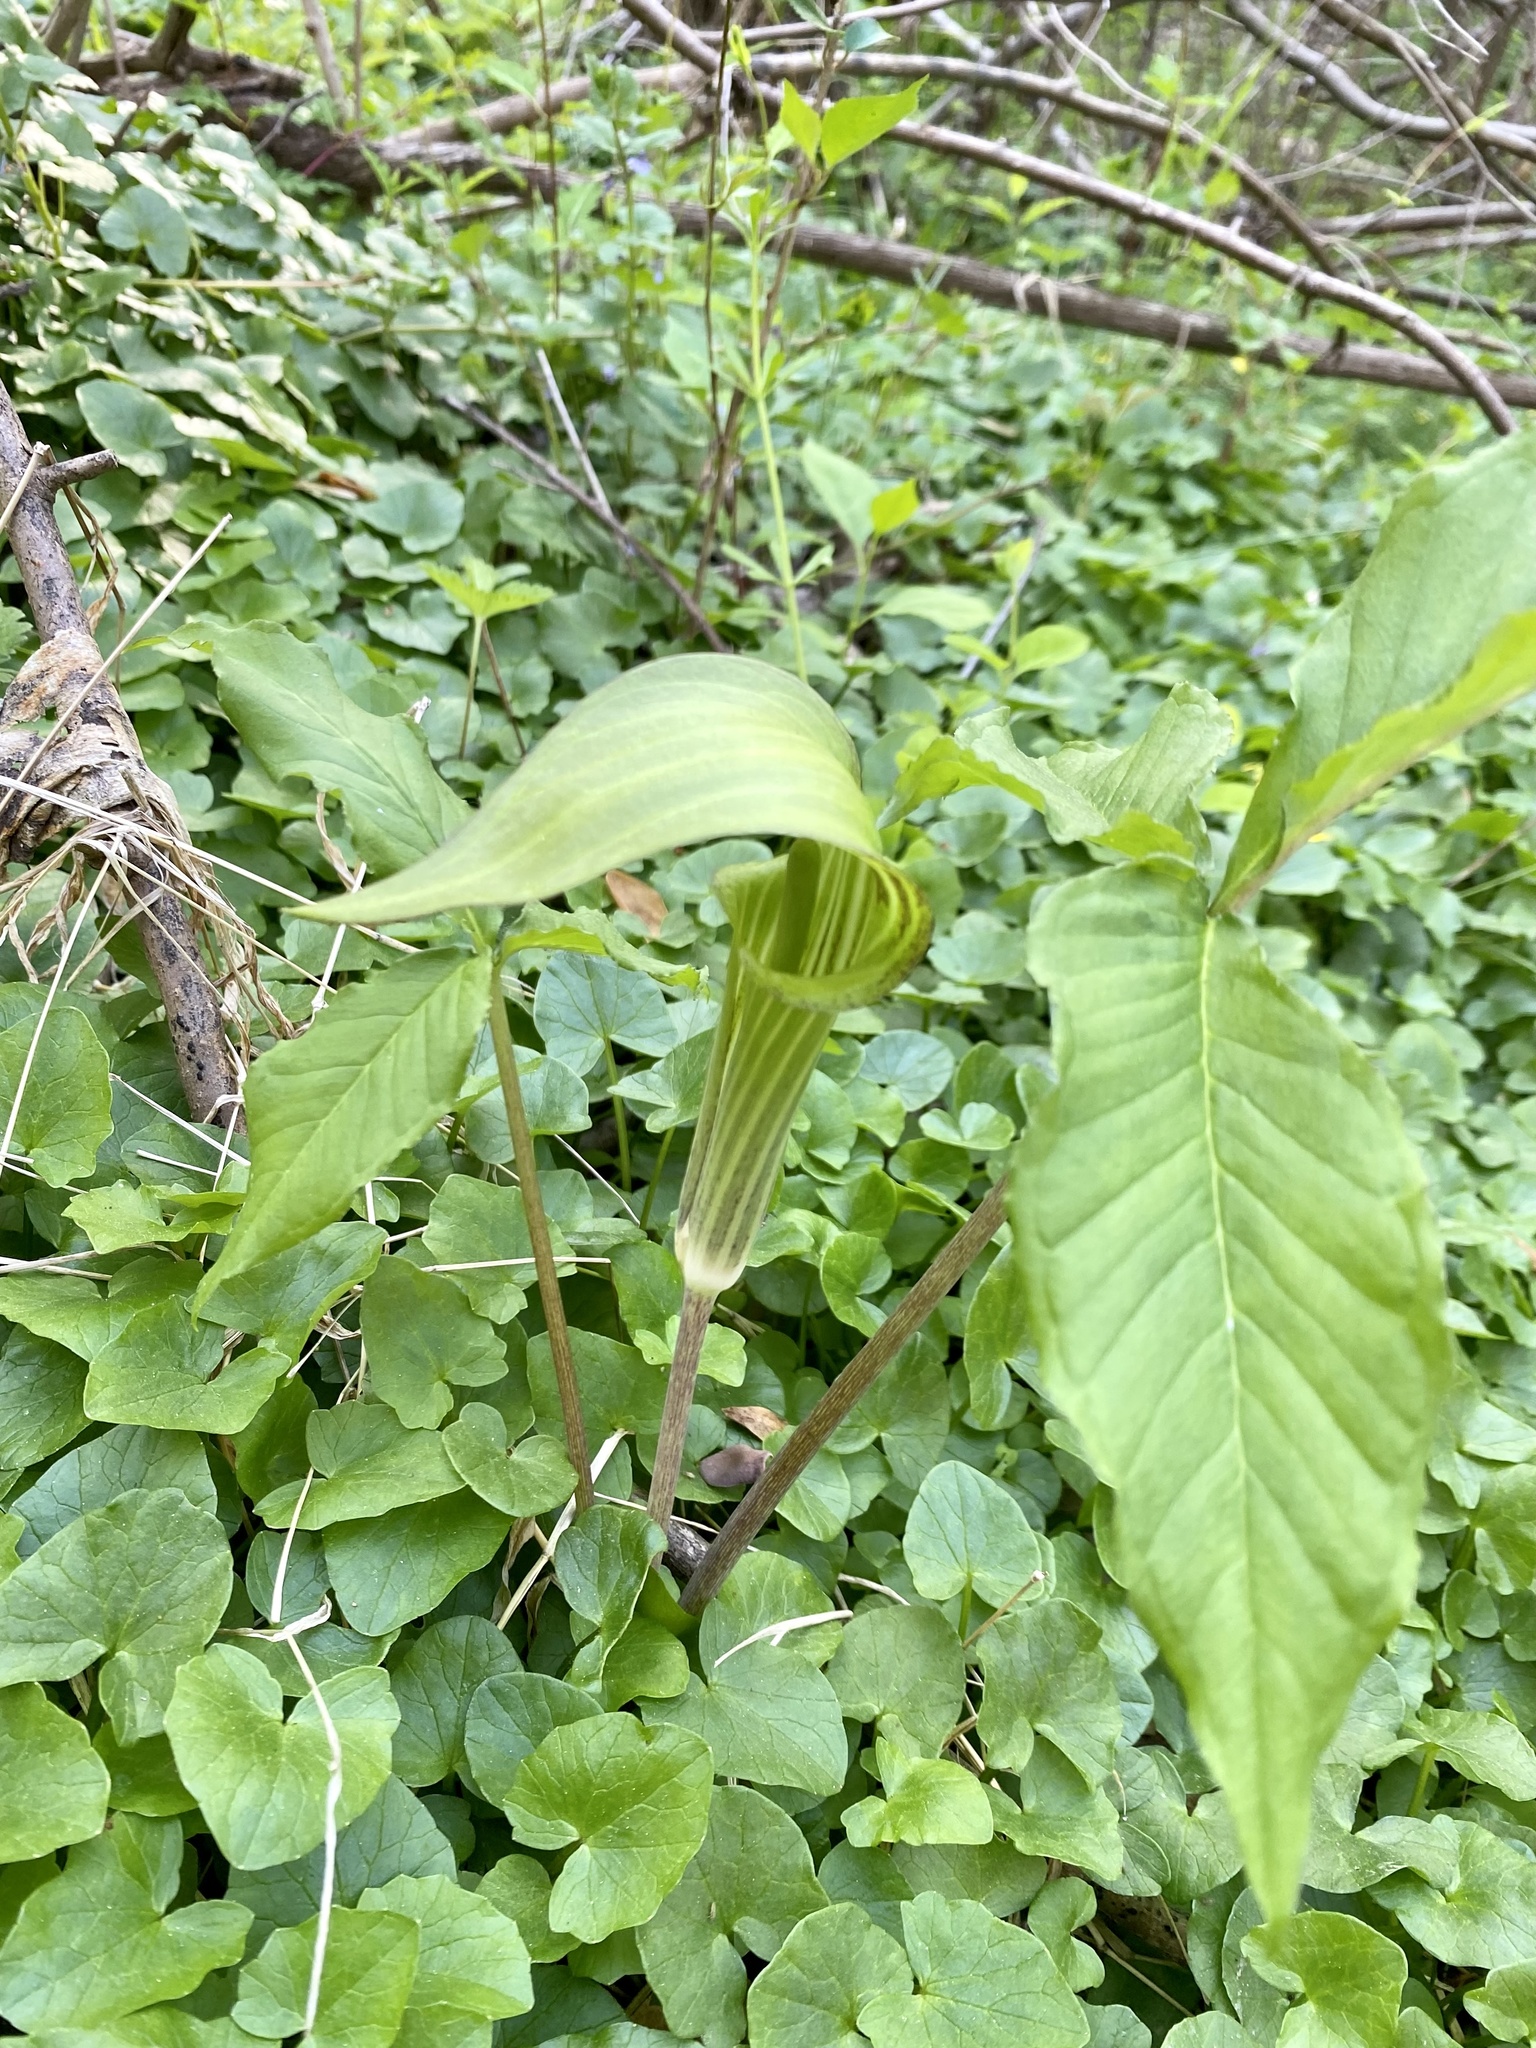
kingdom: Plantae
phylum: Tracheophyta
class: Liliopsida
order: Alismatales
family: Araceae
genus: Arisaema
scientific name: Arisaema triphyllum
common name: Jack-in-the-pulpit
